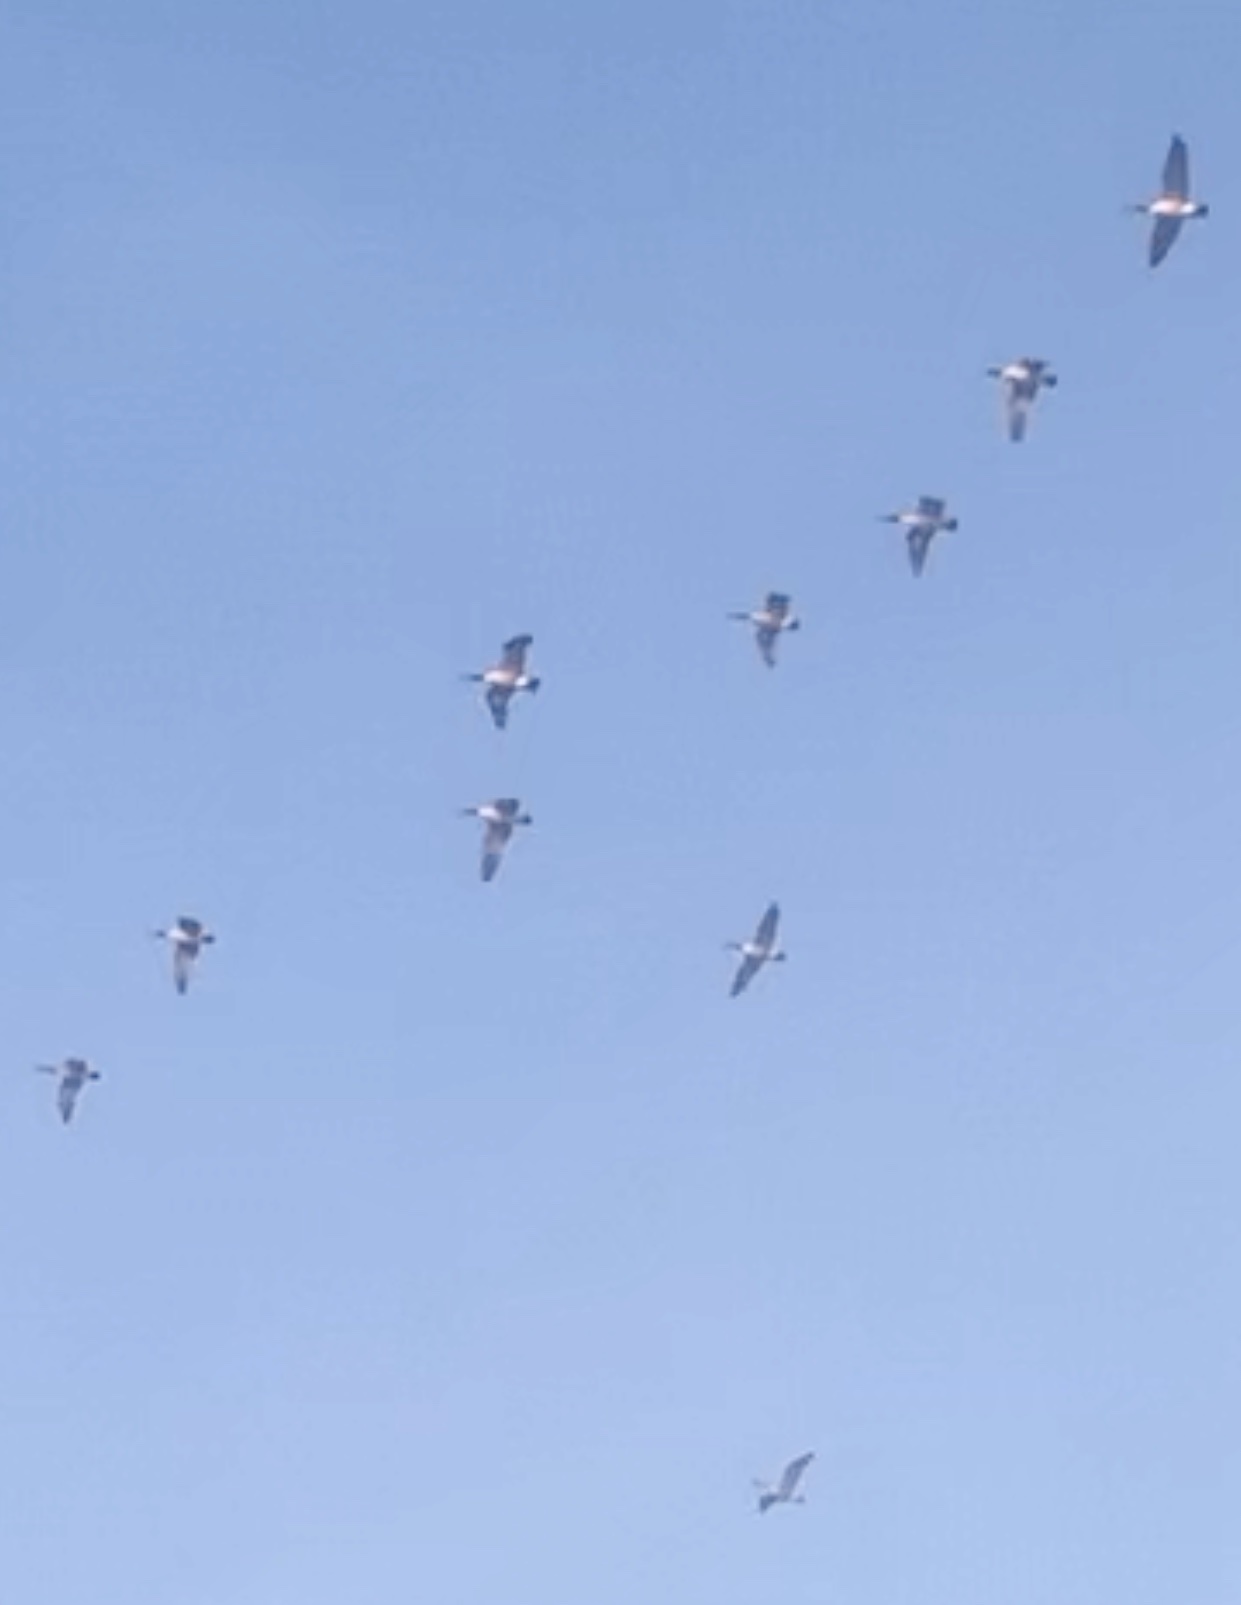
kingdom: Animalia
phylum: Chordata
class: Aves
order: Anseriformes
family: Anatidae
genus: Branta
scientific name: Branta canadensis
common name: Canada goose
